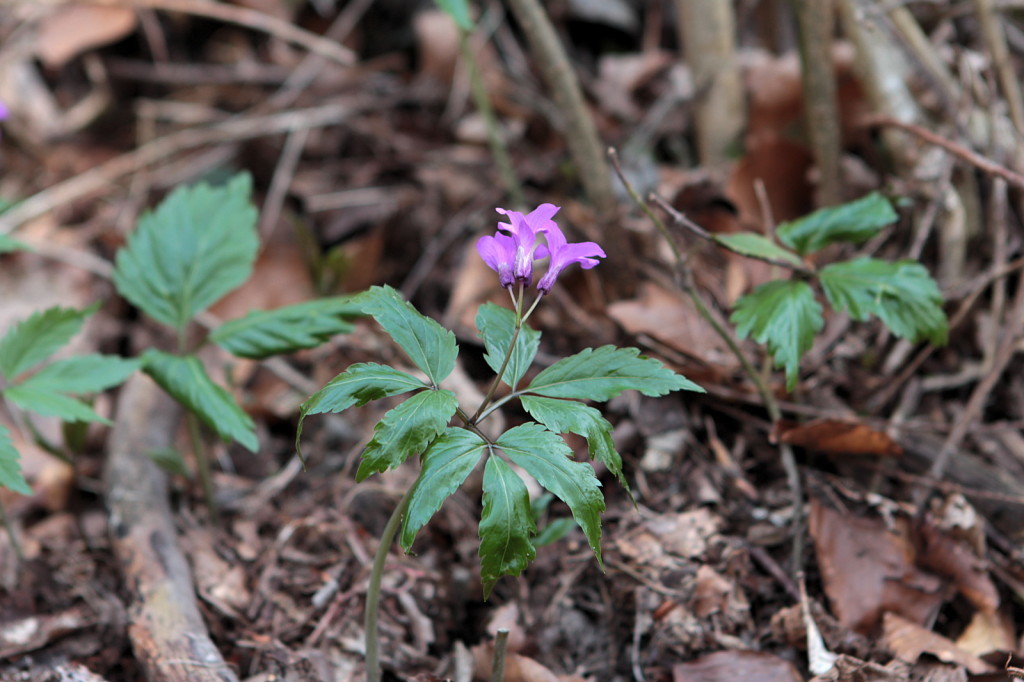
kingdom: Plantae
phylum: Tracheophyta
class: Magnoliopsida
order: Brassicales
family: Brassicaceae
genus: Cardamine
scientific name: Cardamine glanduligera
